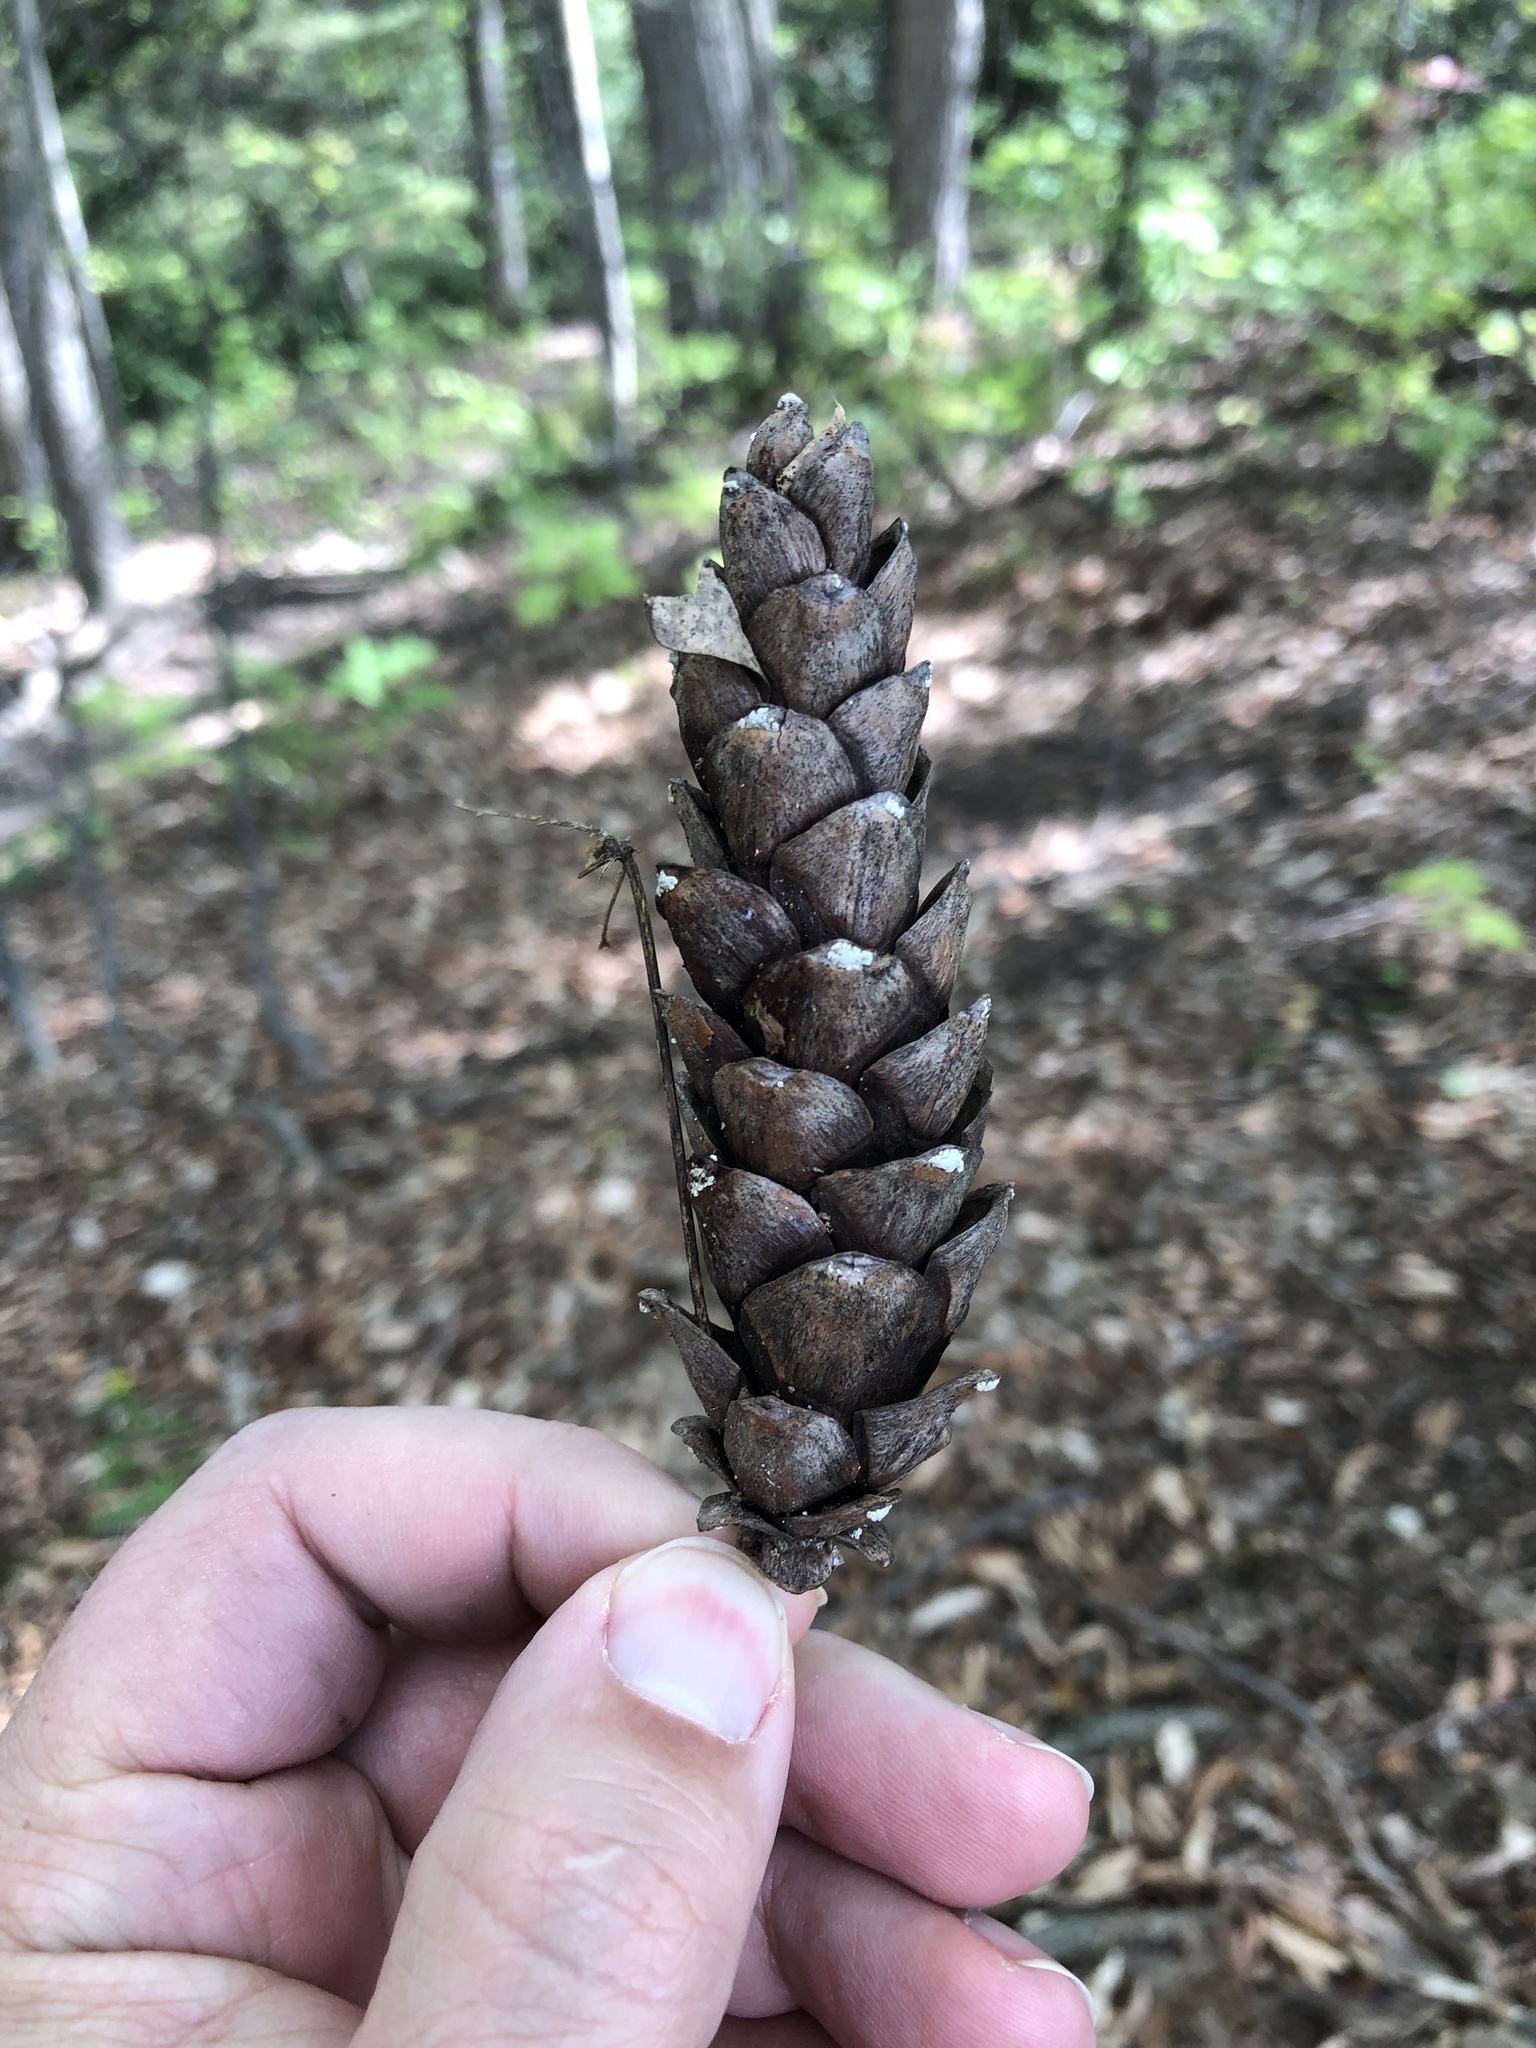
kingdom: Plantae
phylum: Tracheophyta
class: Pinopsida
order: Pinales
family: Pinaceae
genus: Pinus
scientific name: Pinus strobus
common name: Weymouth pine
